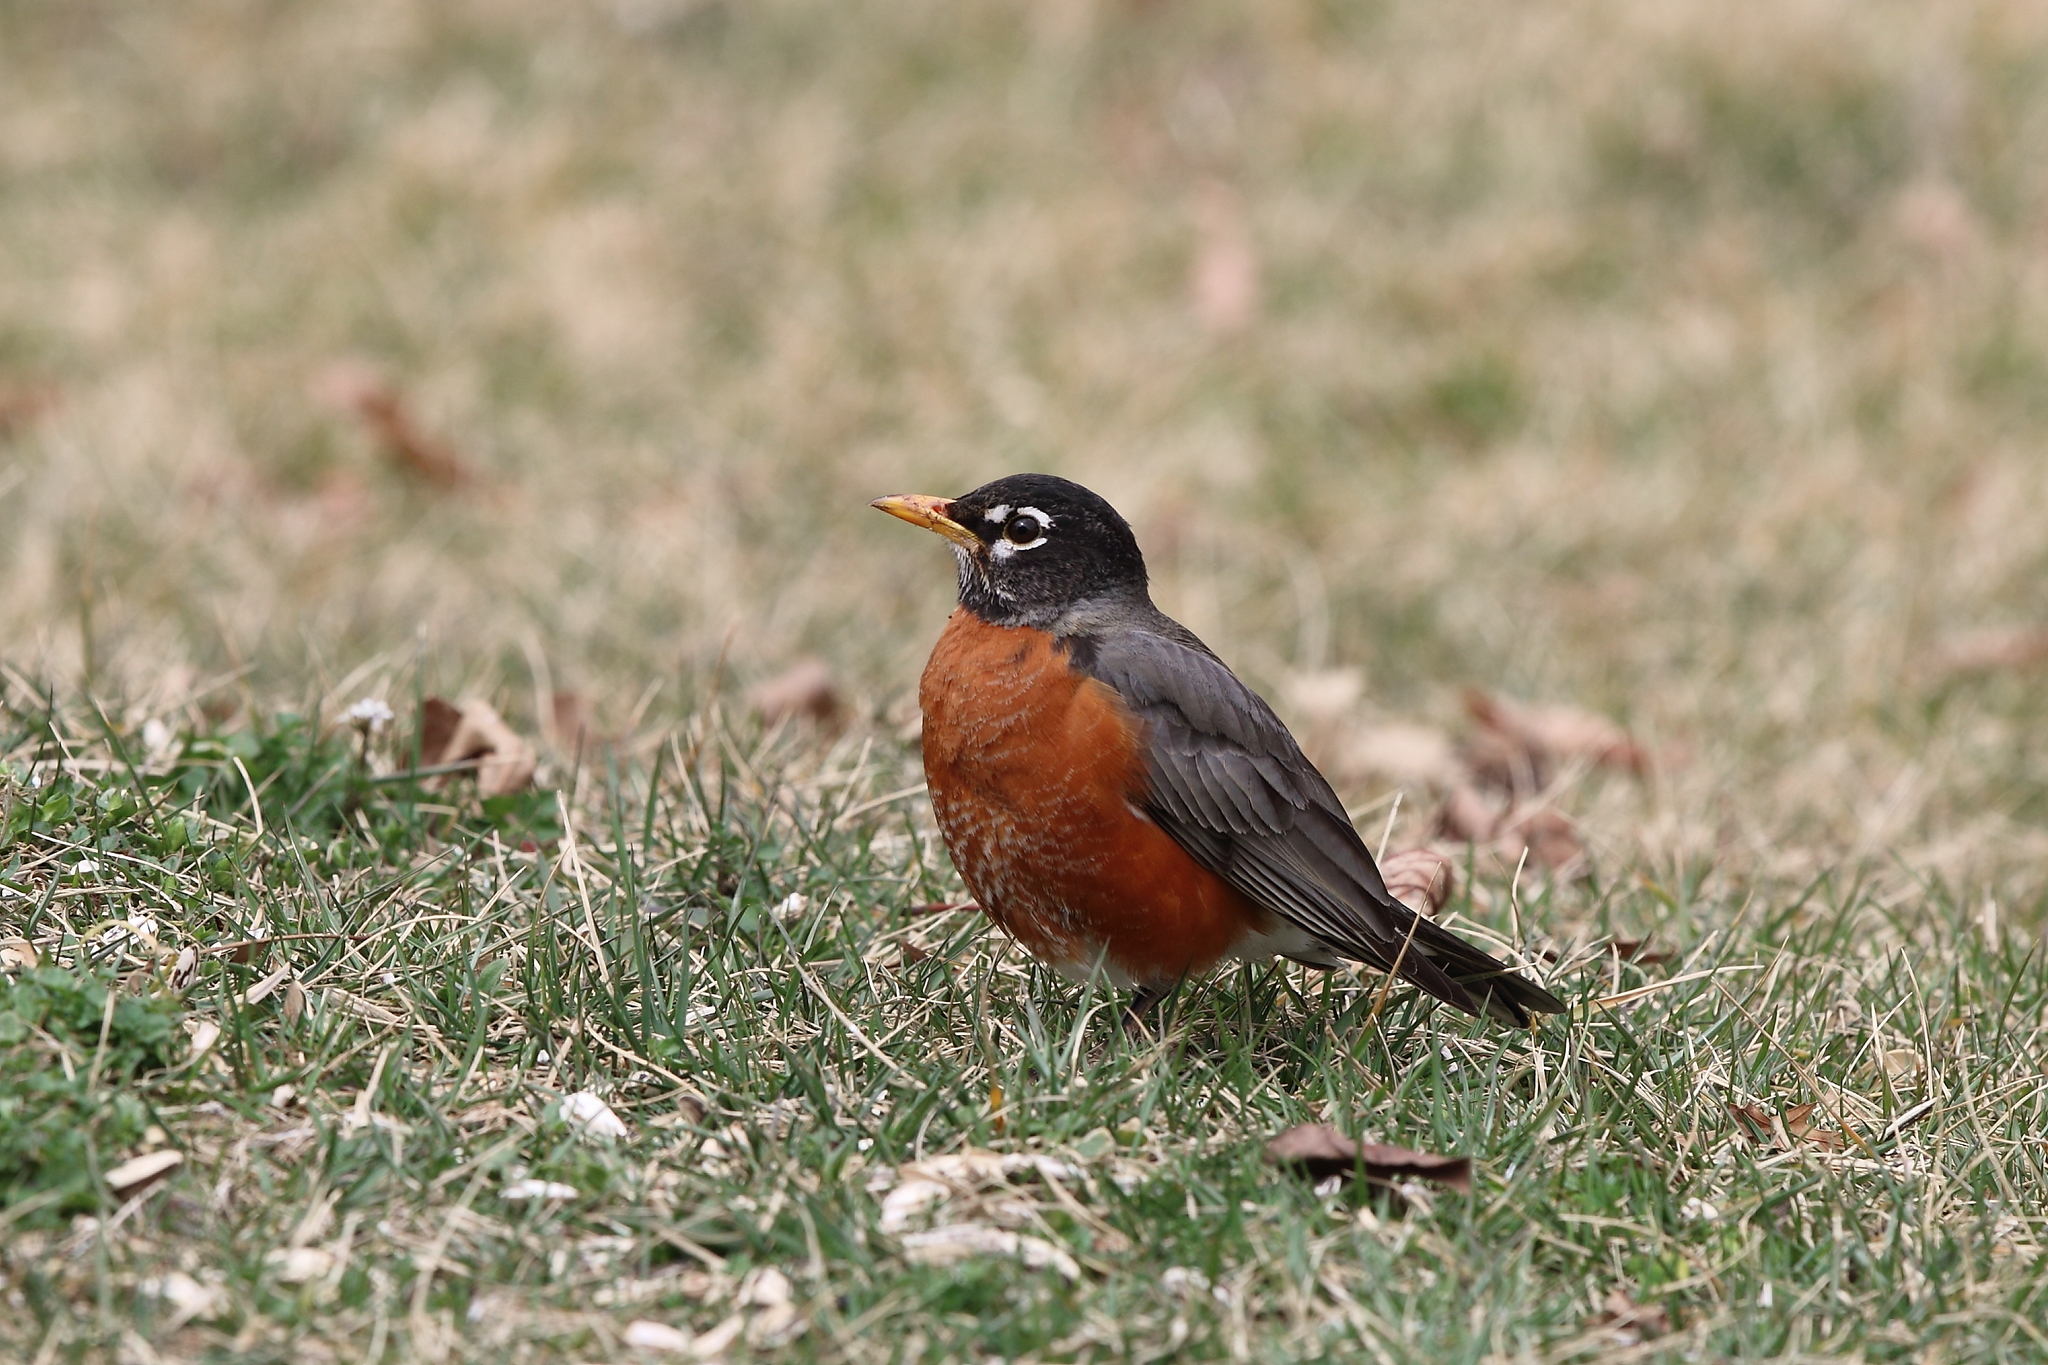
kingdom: Animalia
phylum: Chordata
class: Aves
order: Passeriformes
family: Turdidae
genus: Turdus
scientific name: Turdus migratorius
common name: American robin
